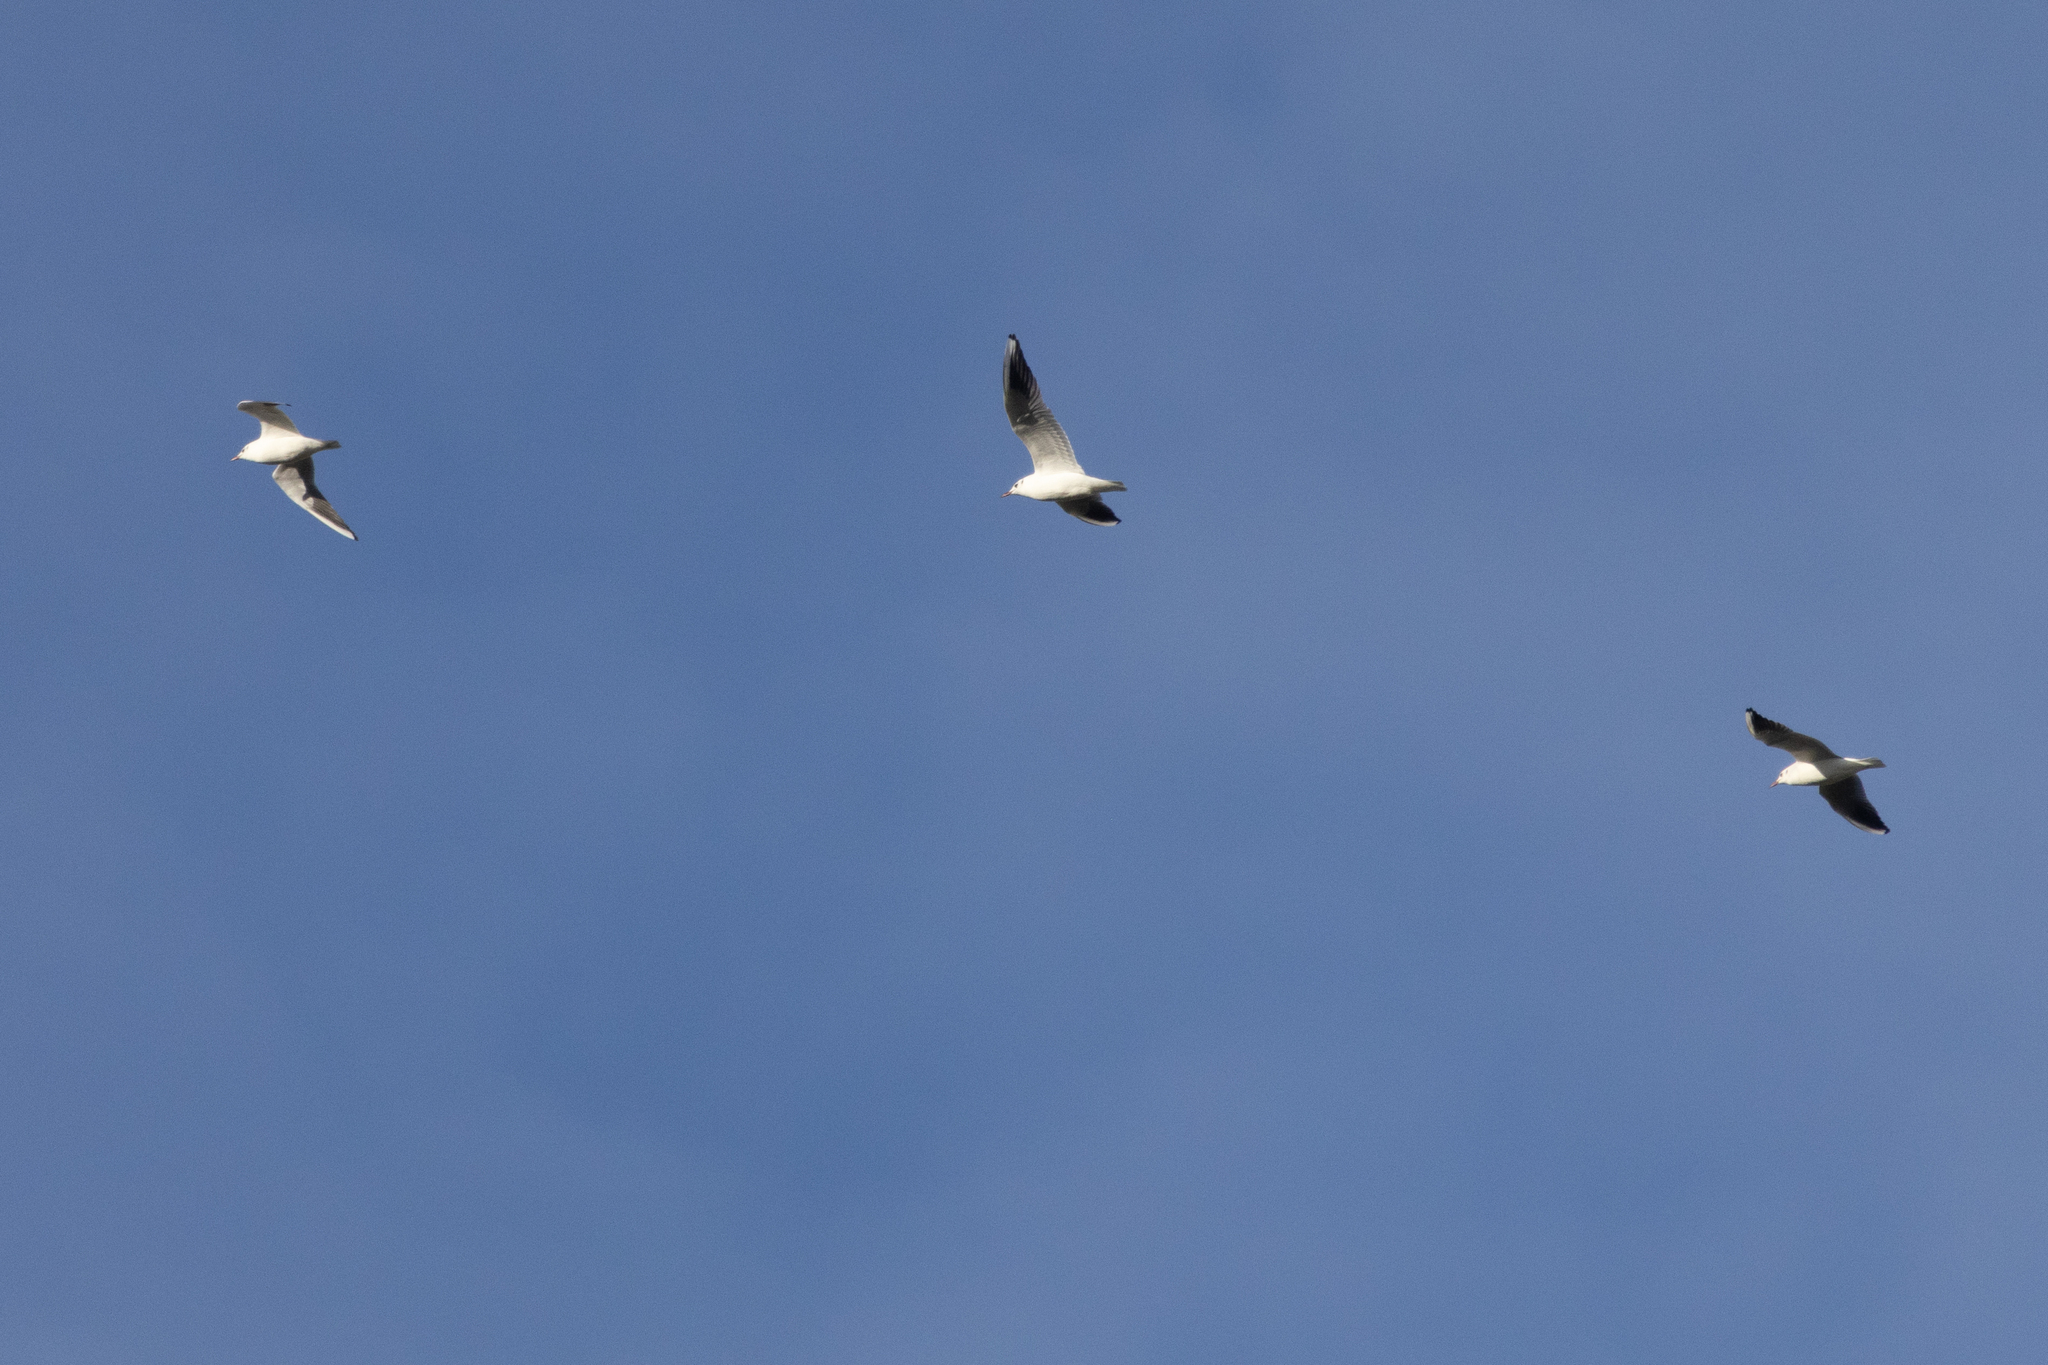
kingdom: Animalia
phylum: Chordata
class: Aves
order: Charadriiformes
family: Laridae
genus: Chroicocephalus
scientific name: Chroicocephalus ridibundus
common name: Black-headed gull
